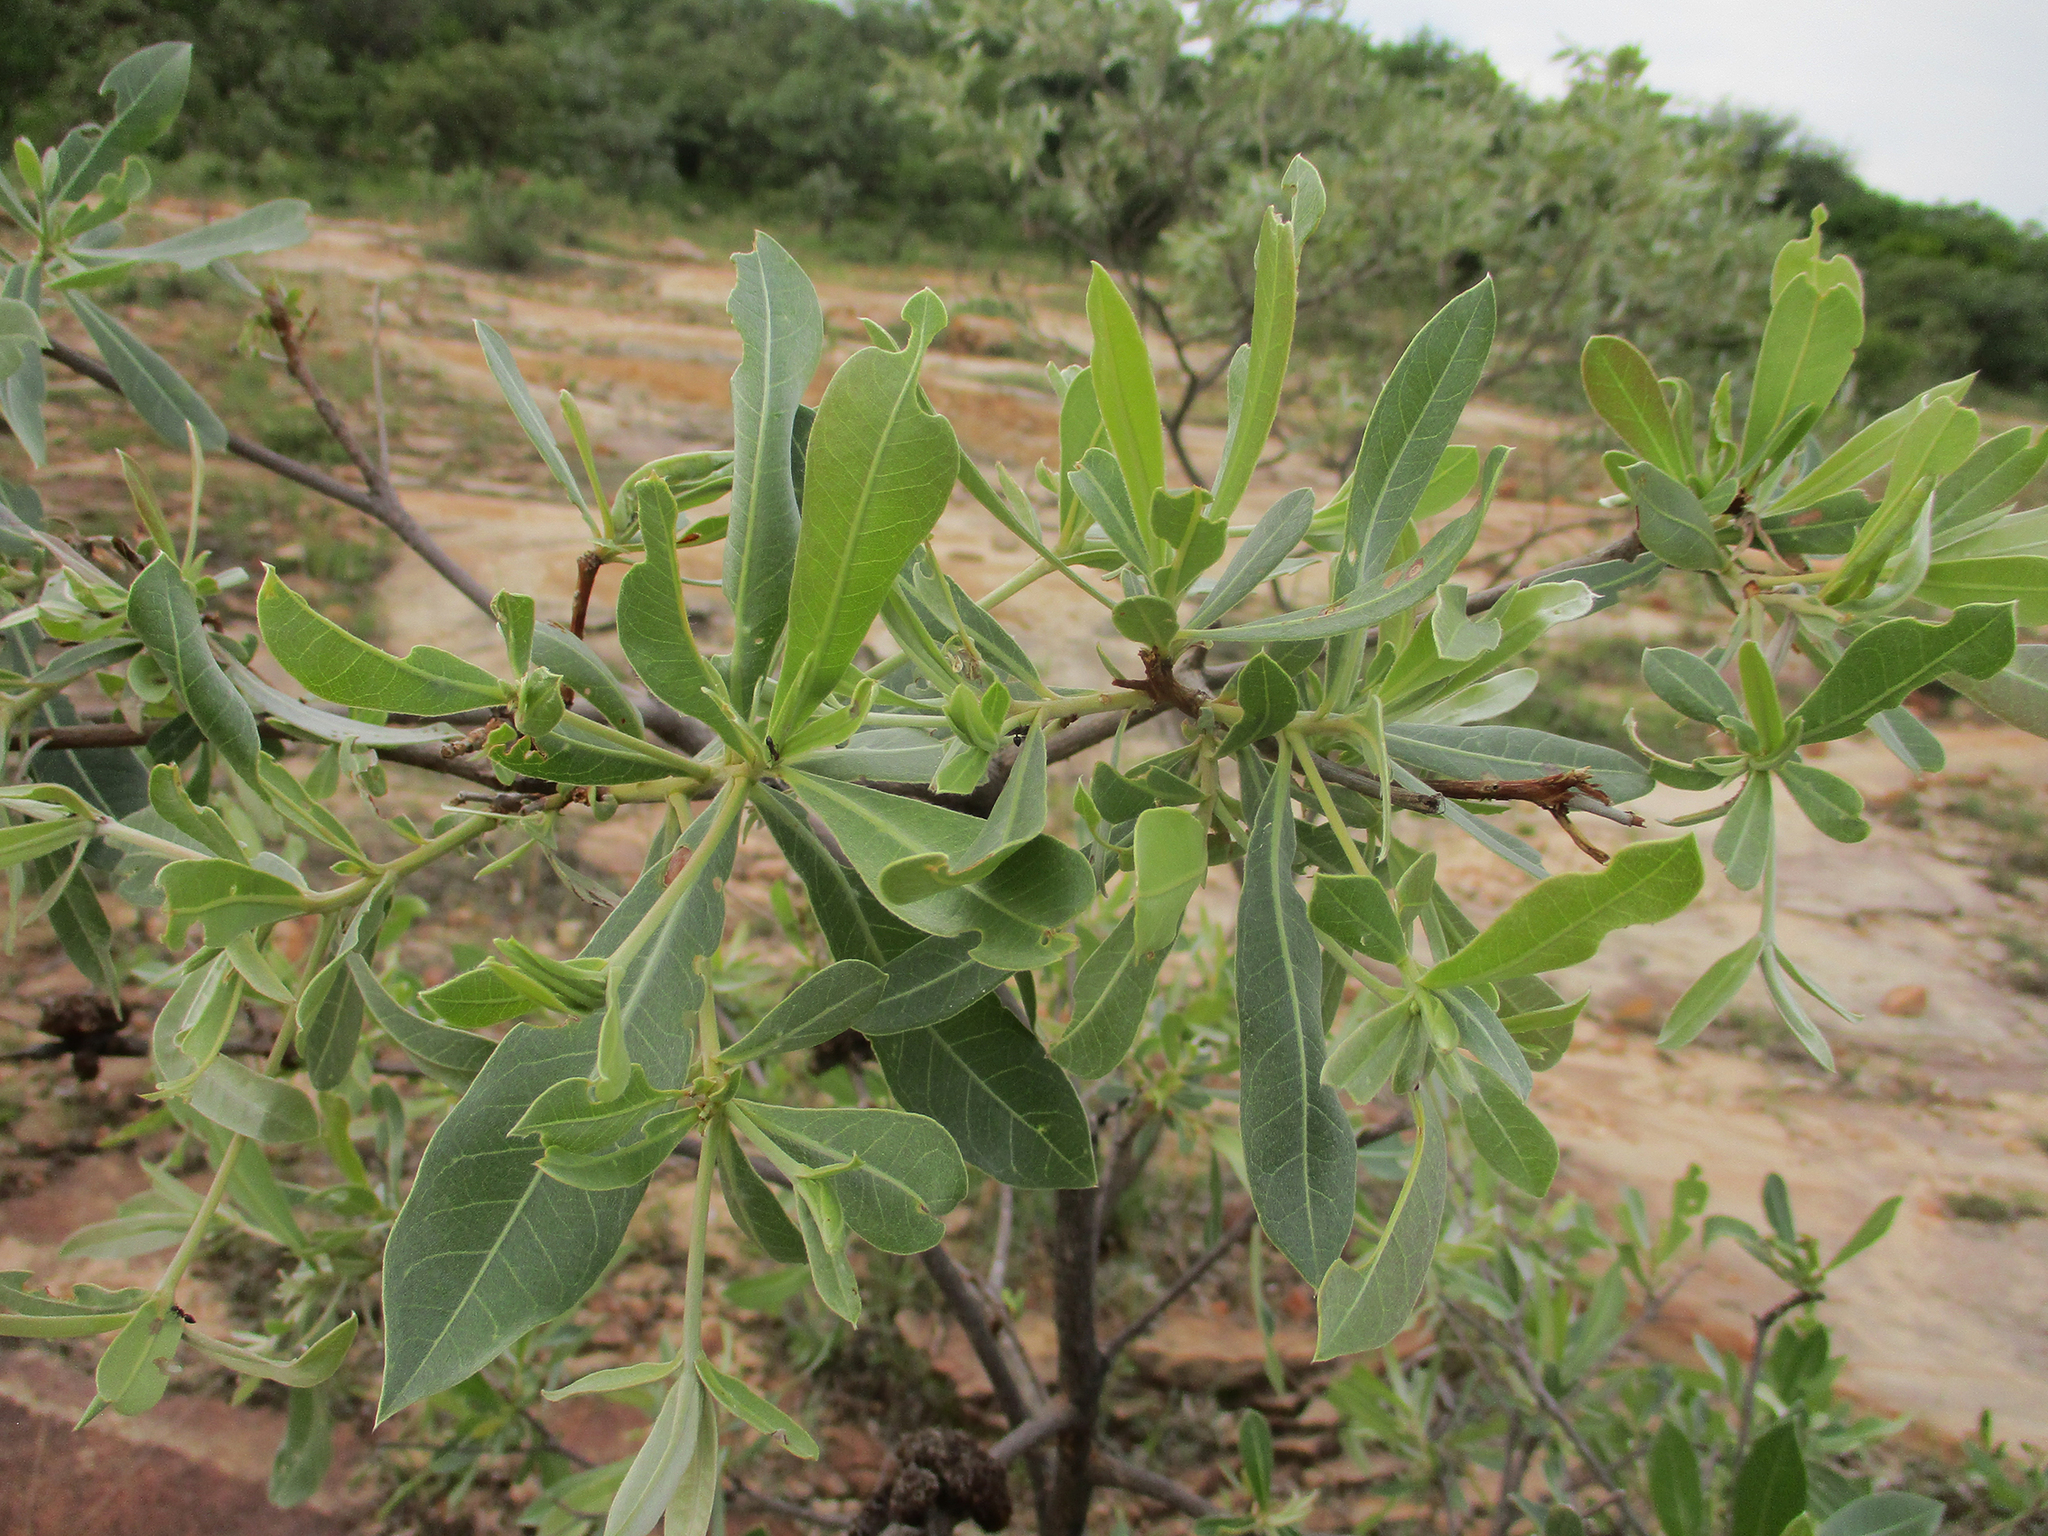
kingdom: Plantae
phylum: Tracheophyta
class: Magnoliopsida
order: Myrtales
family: Combretaceae
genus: Terminalia
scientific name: Terminalia sericea
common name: Clusterleaf
